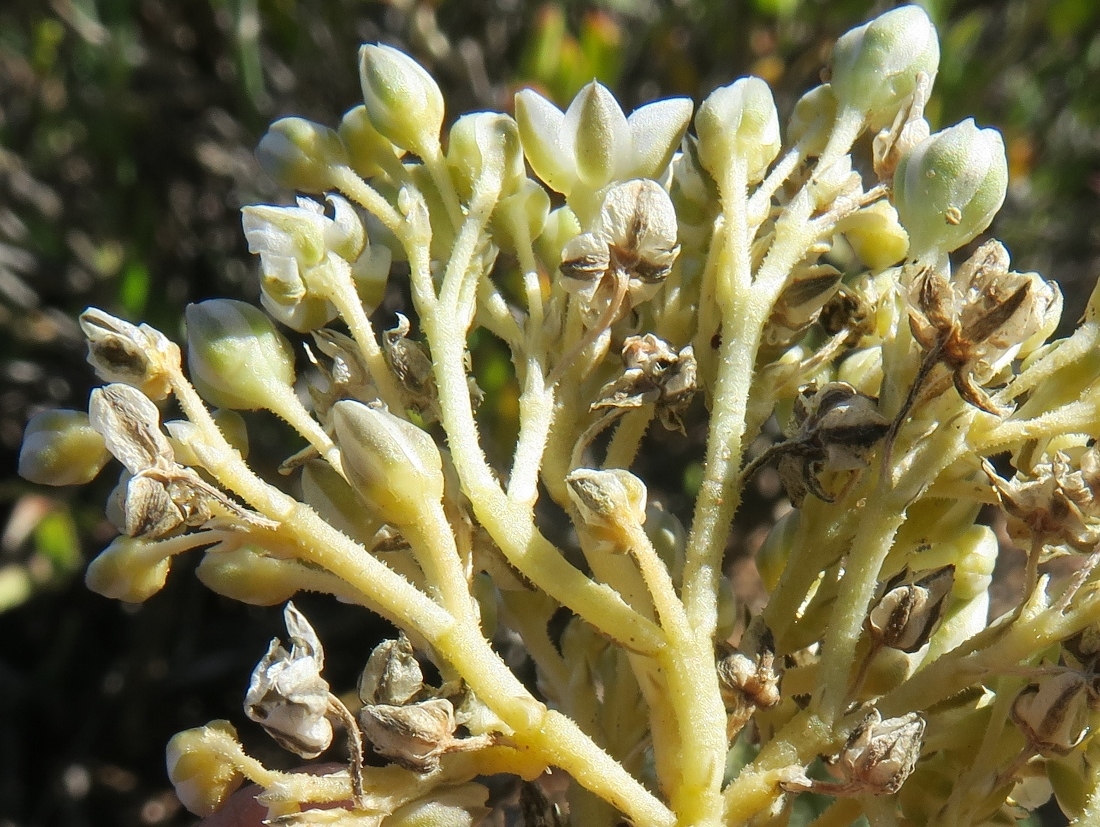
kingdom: Plantae
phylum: Tracheophyta
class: Magnoliopsida
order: Caryophyllales
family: Limeaceae
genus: Limeum
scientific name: Limeum africanum
